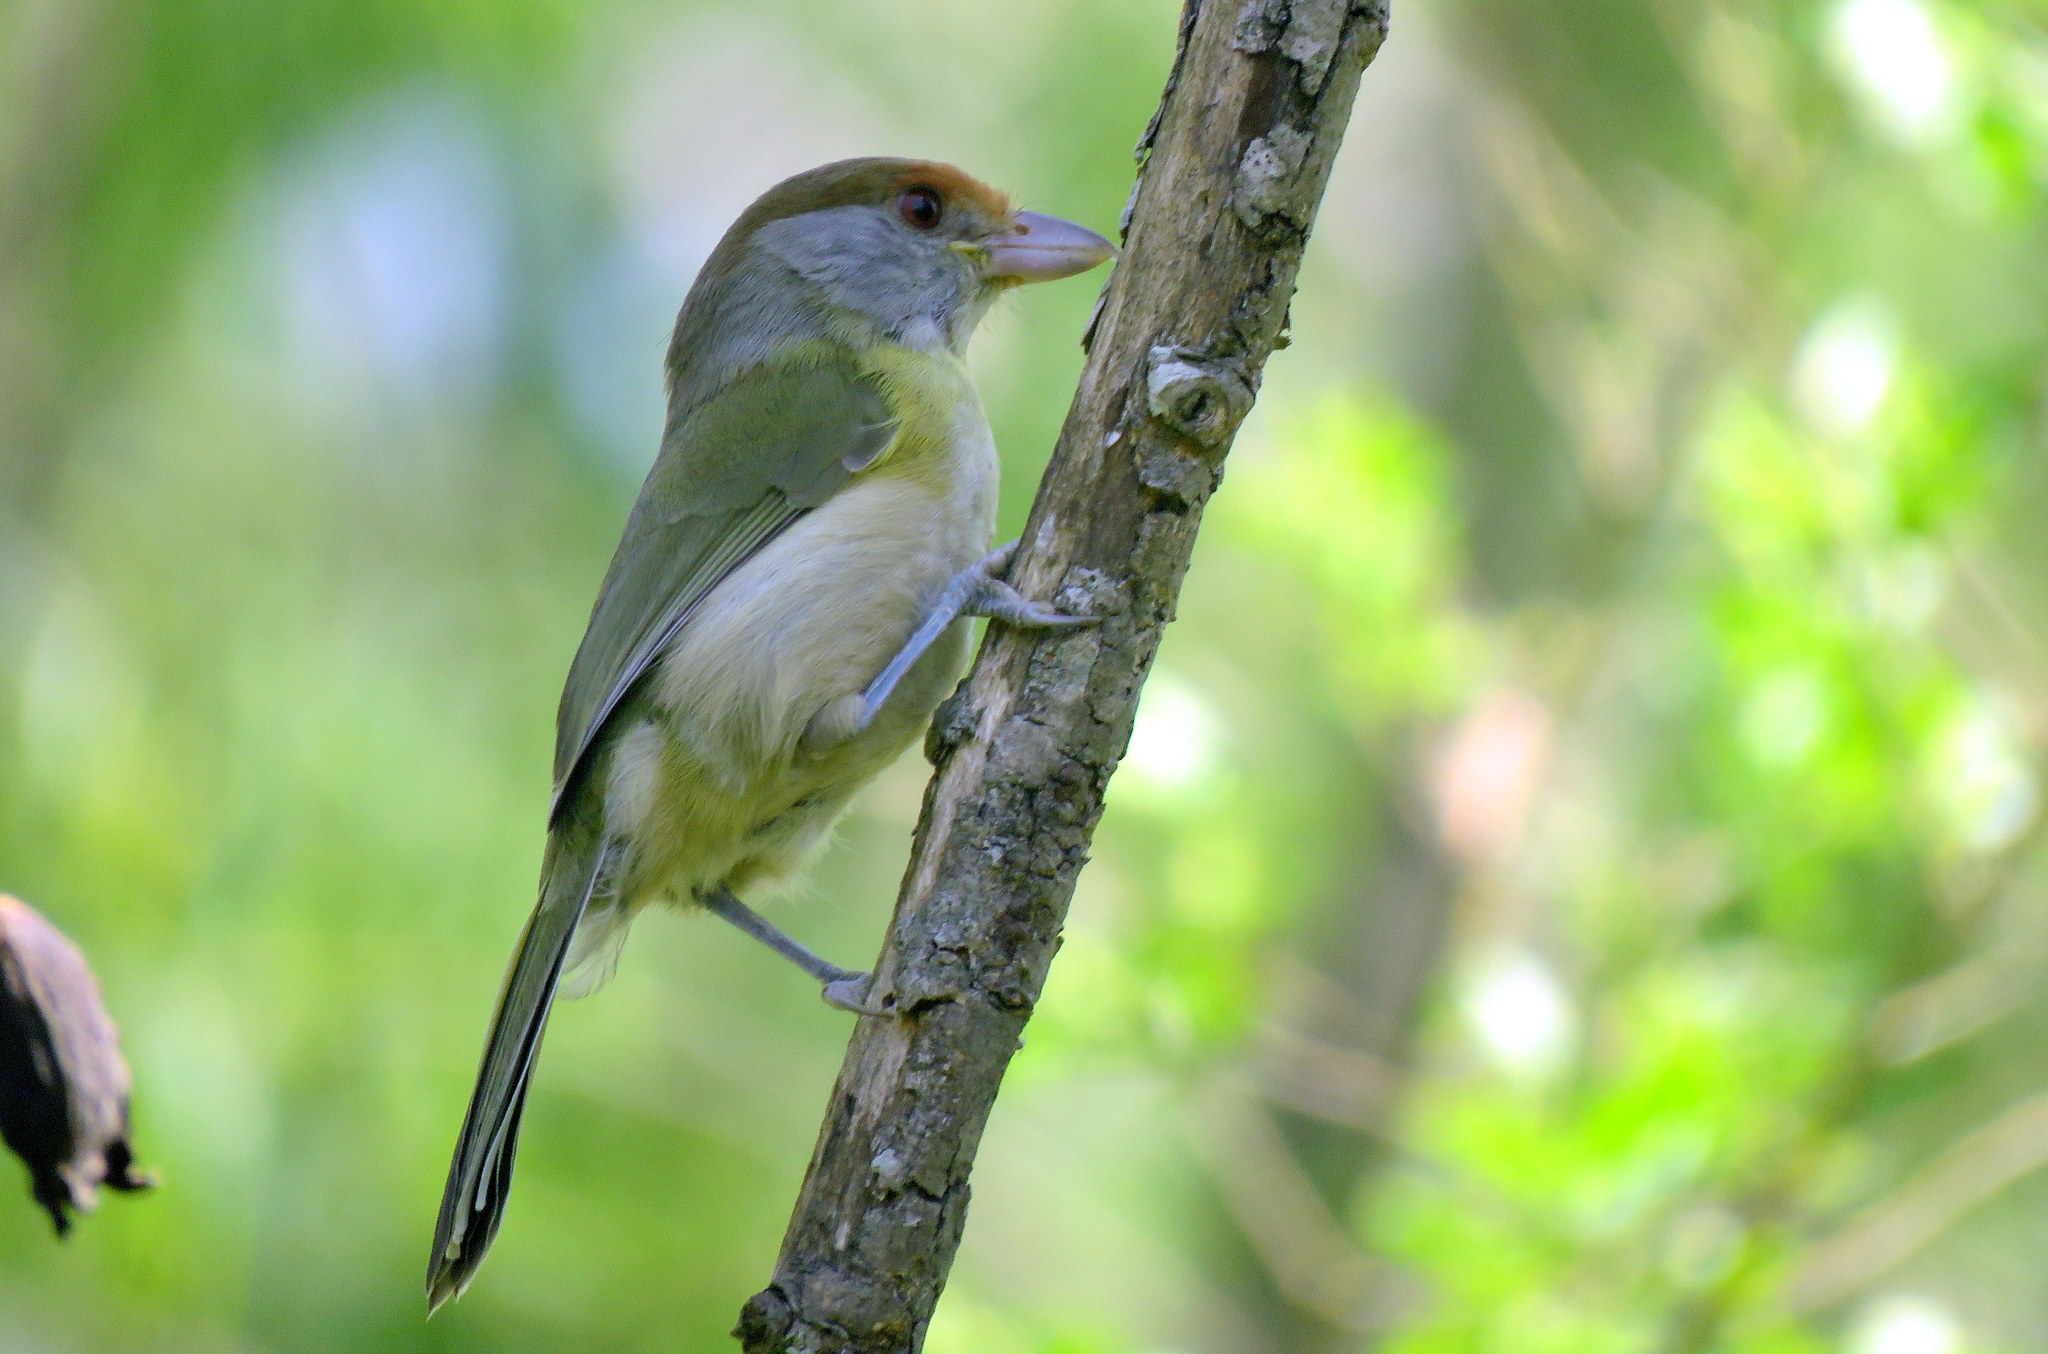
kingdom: Animalia
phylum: Chordata
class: Aves
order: Passeriformes
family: Vireonidae
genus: Cyclarhis
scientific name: Cyclarhis gujanensis
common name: Rufous-browed peppershrike
